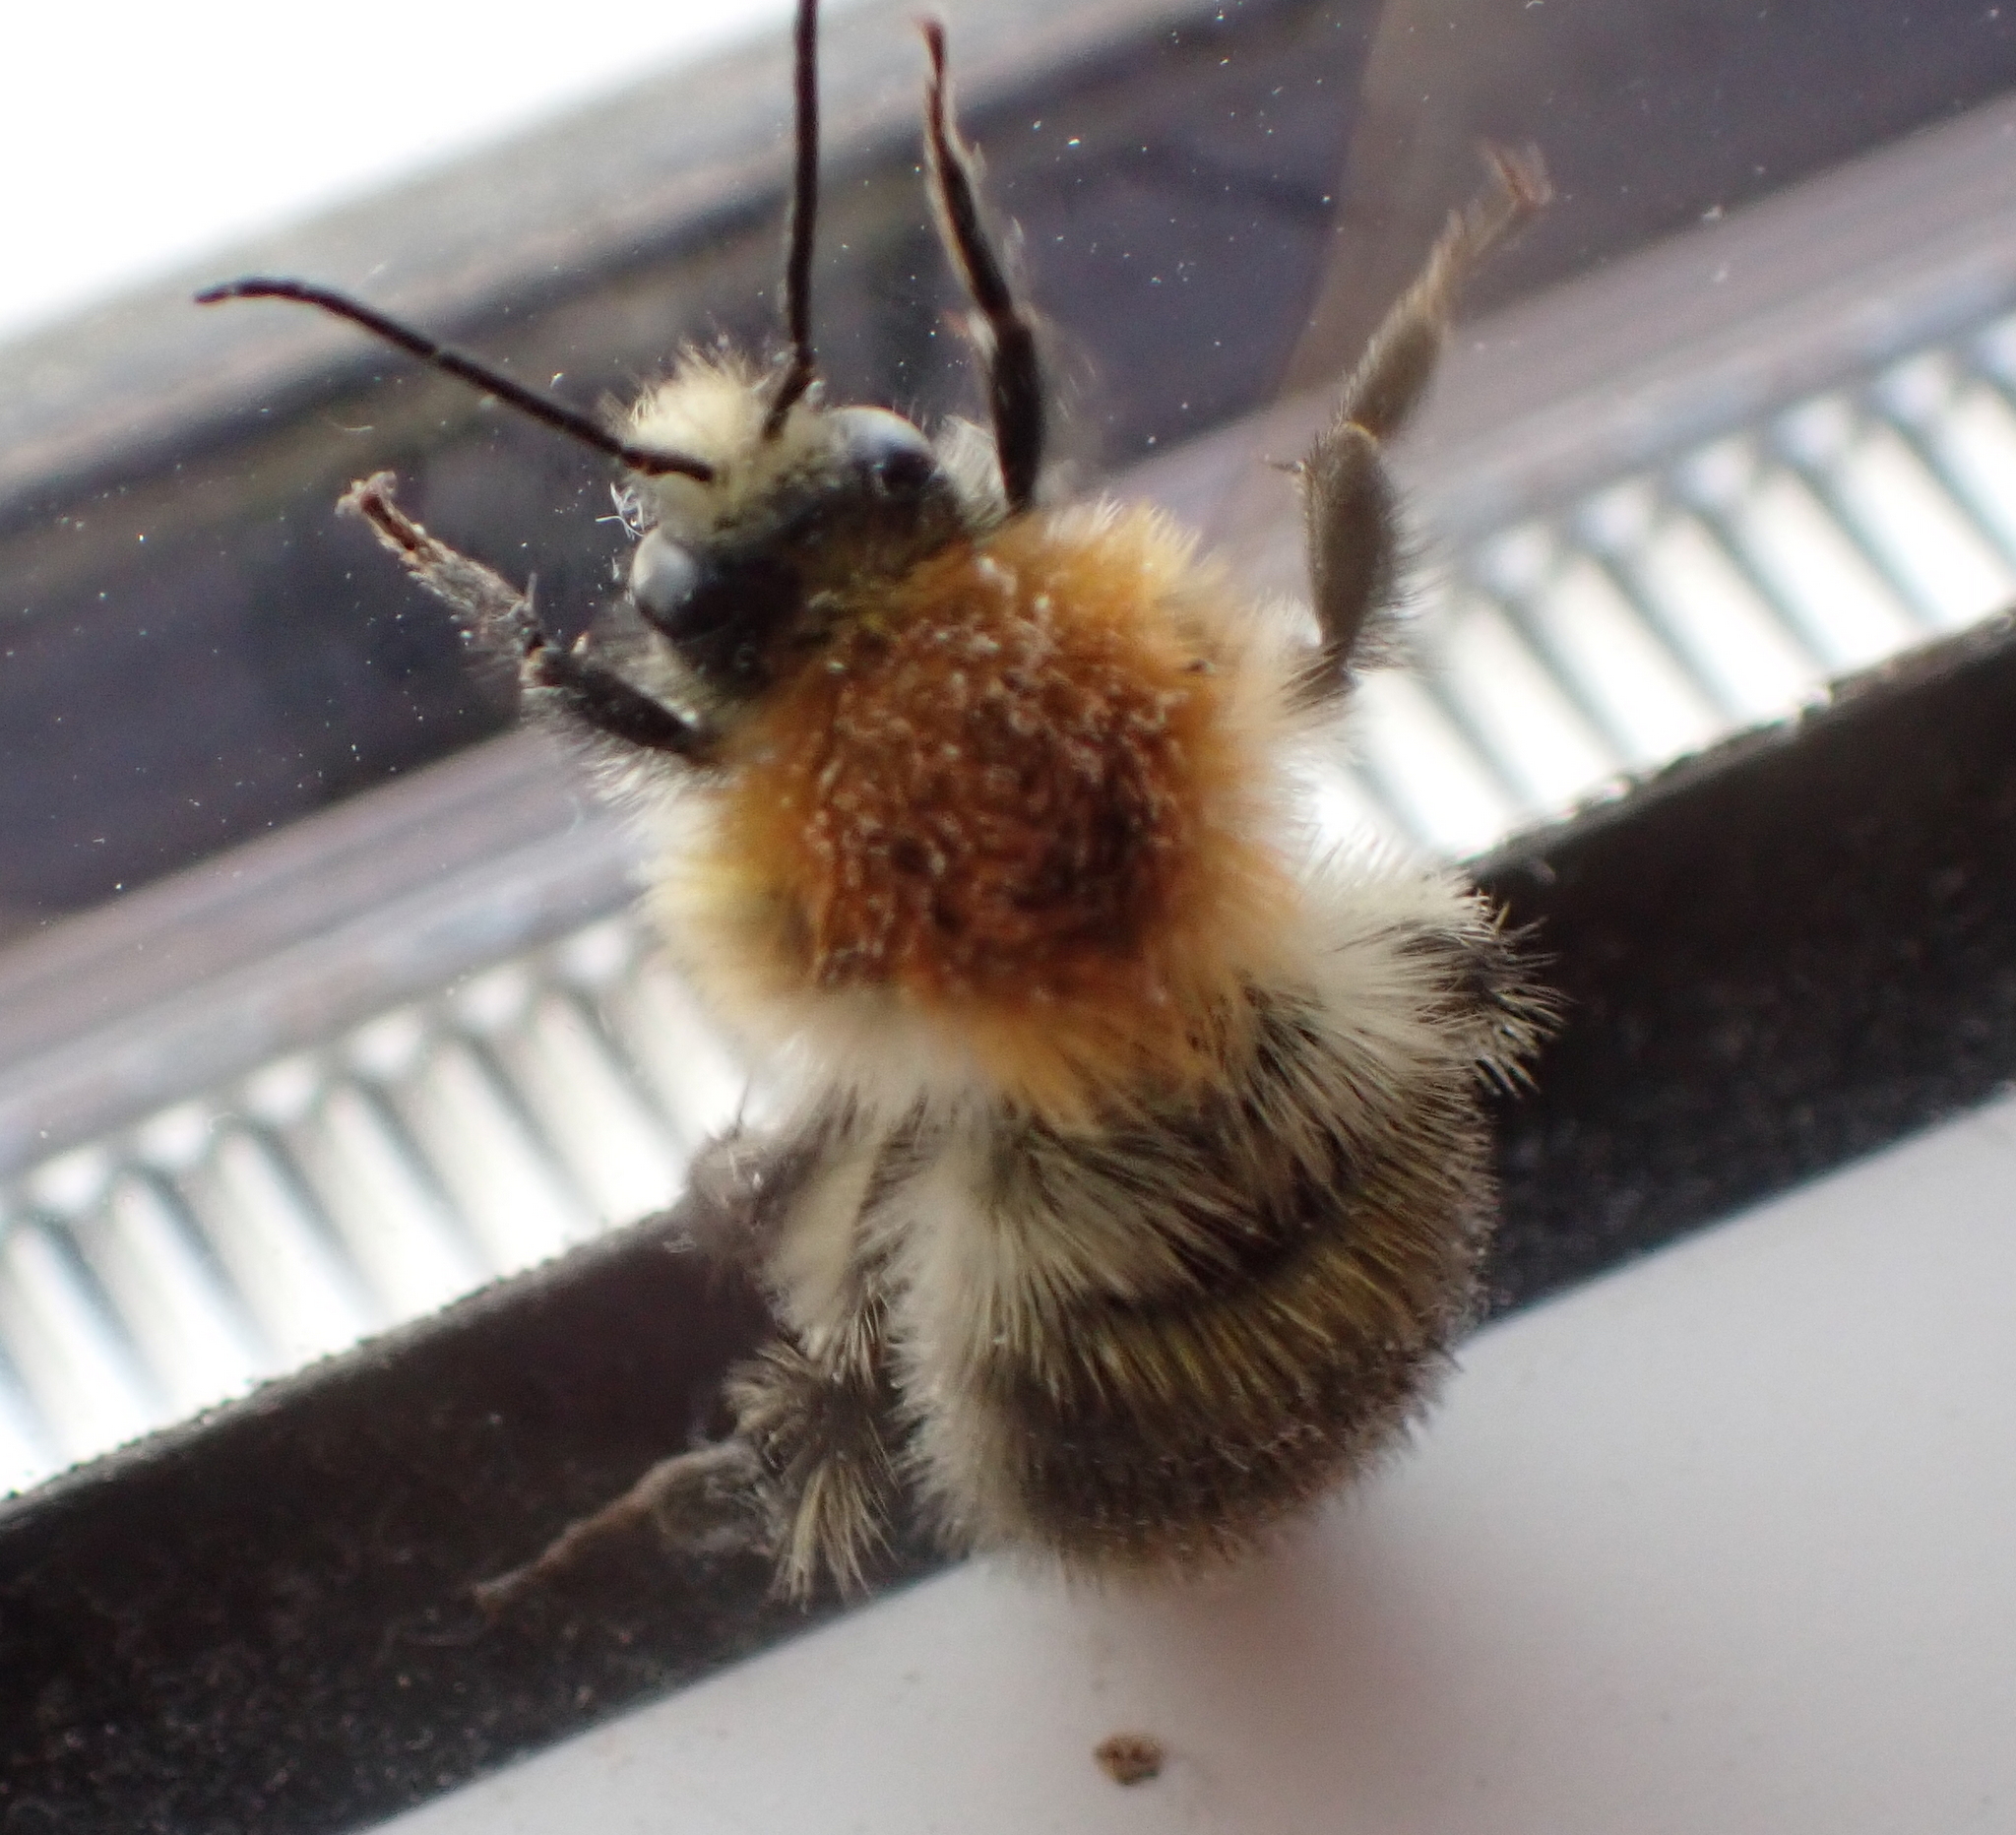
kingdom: Animalia
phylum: Arthropoda
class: Insecta
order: Hymenoptera
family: Apidae
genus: Bombus
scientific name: Bombus pascuorum
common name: Common carder bee
